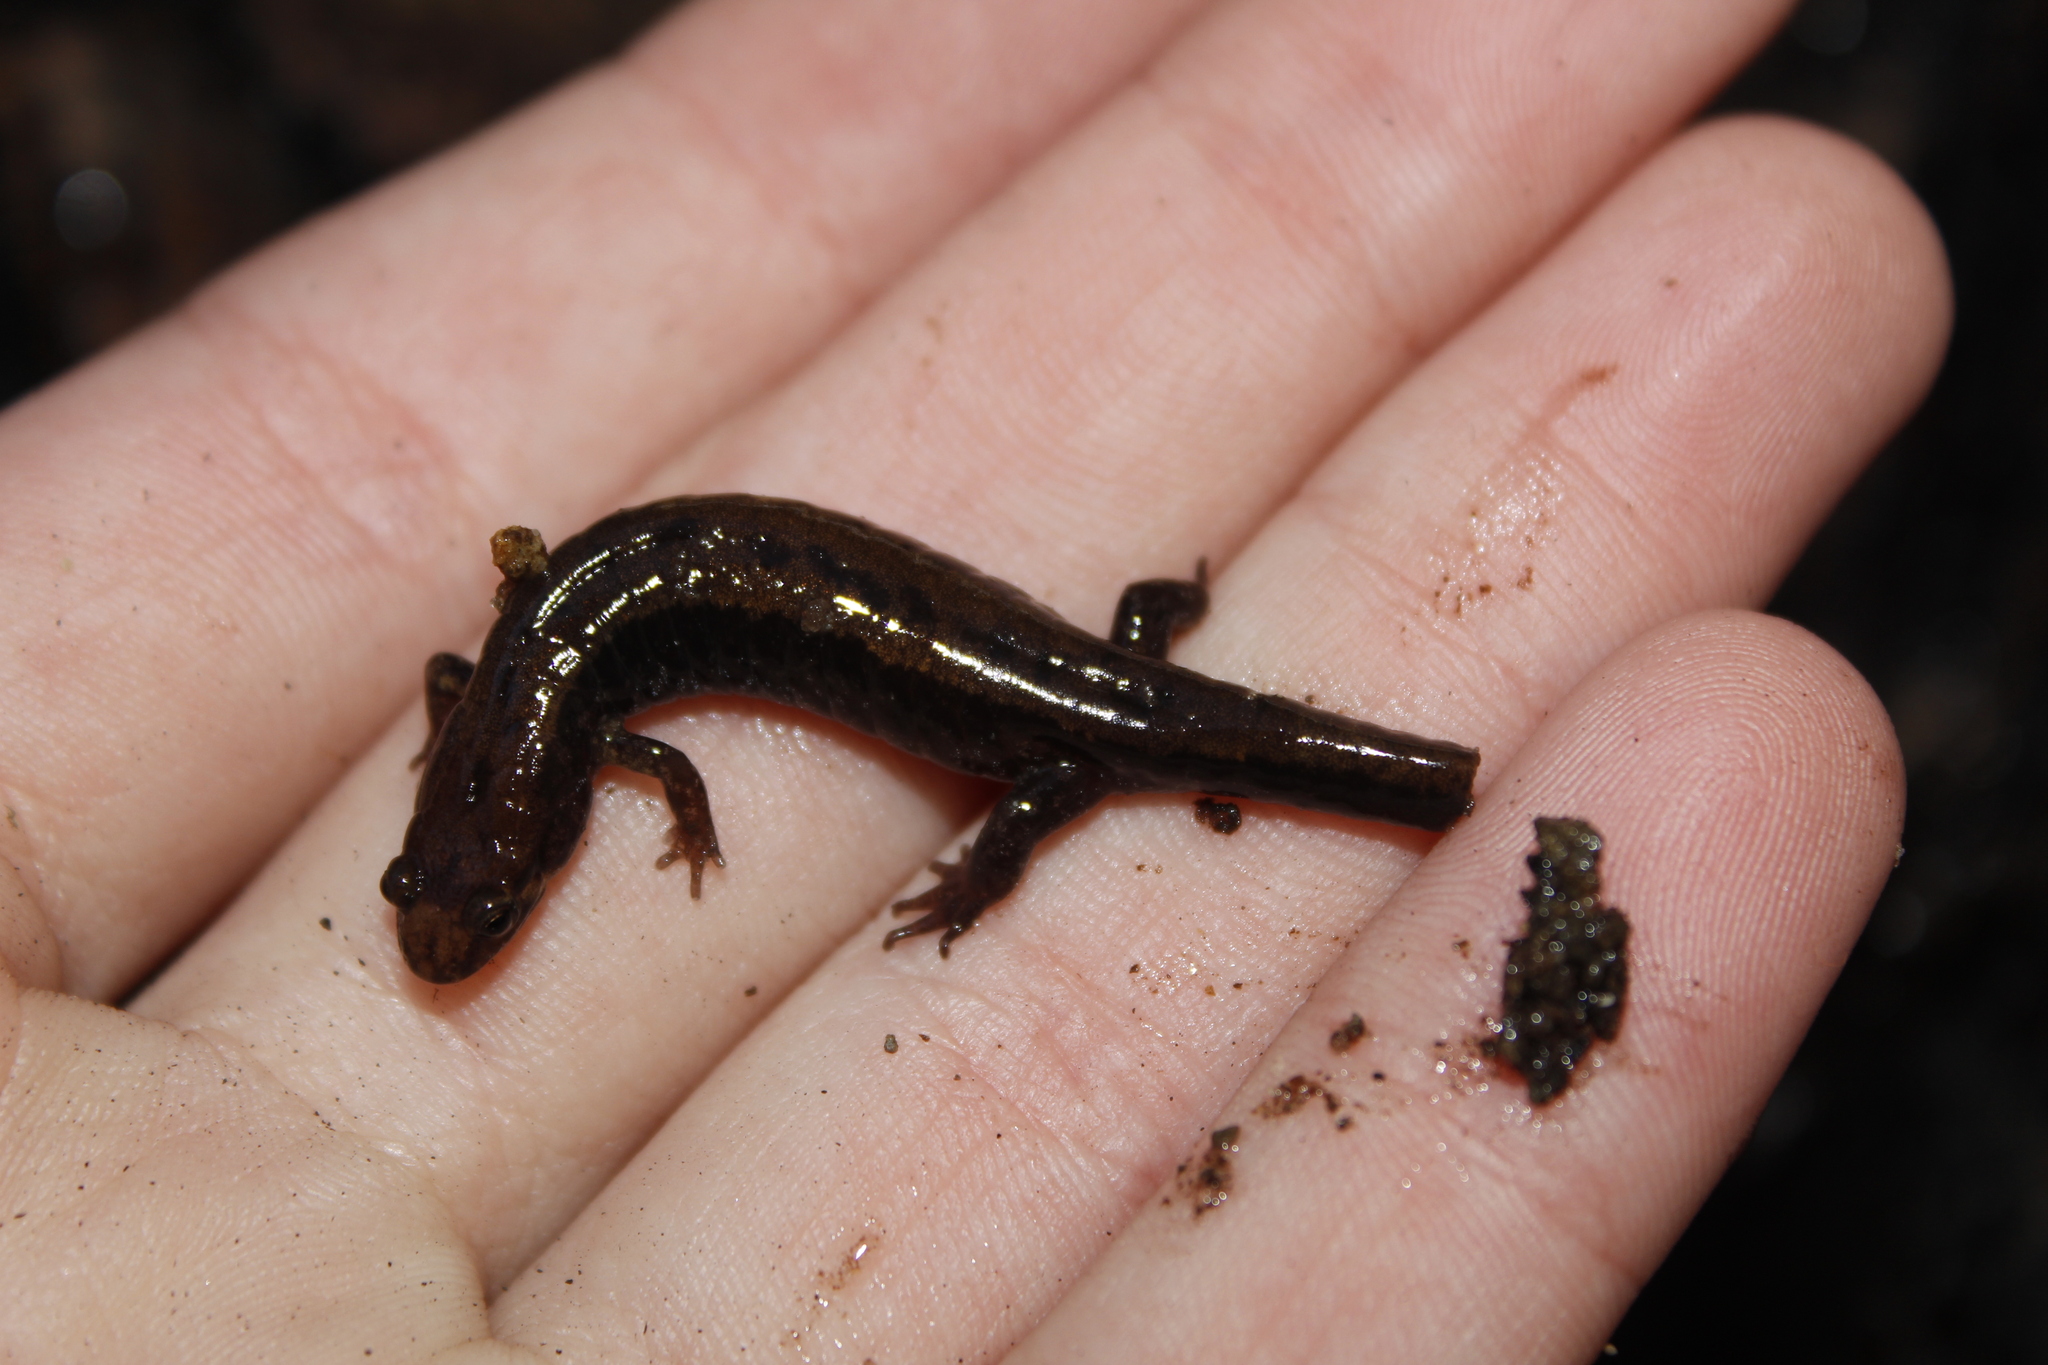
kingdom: Animalia
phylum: Chordata
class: Amphibia
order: Caudata
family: Plethodontidae
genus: Desmognathus
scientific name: Desmognathus ochrophaeus
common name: Allegheny mountain dusky salamander
